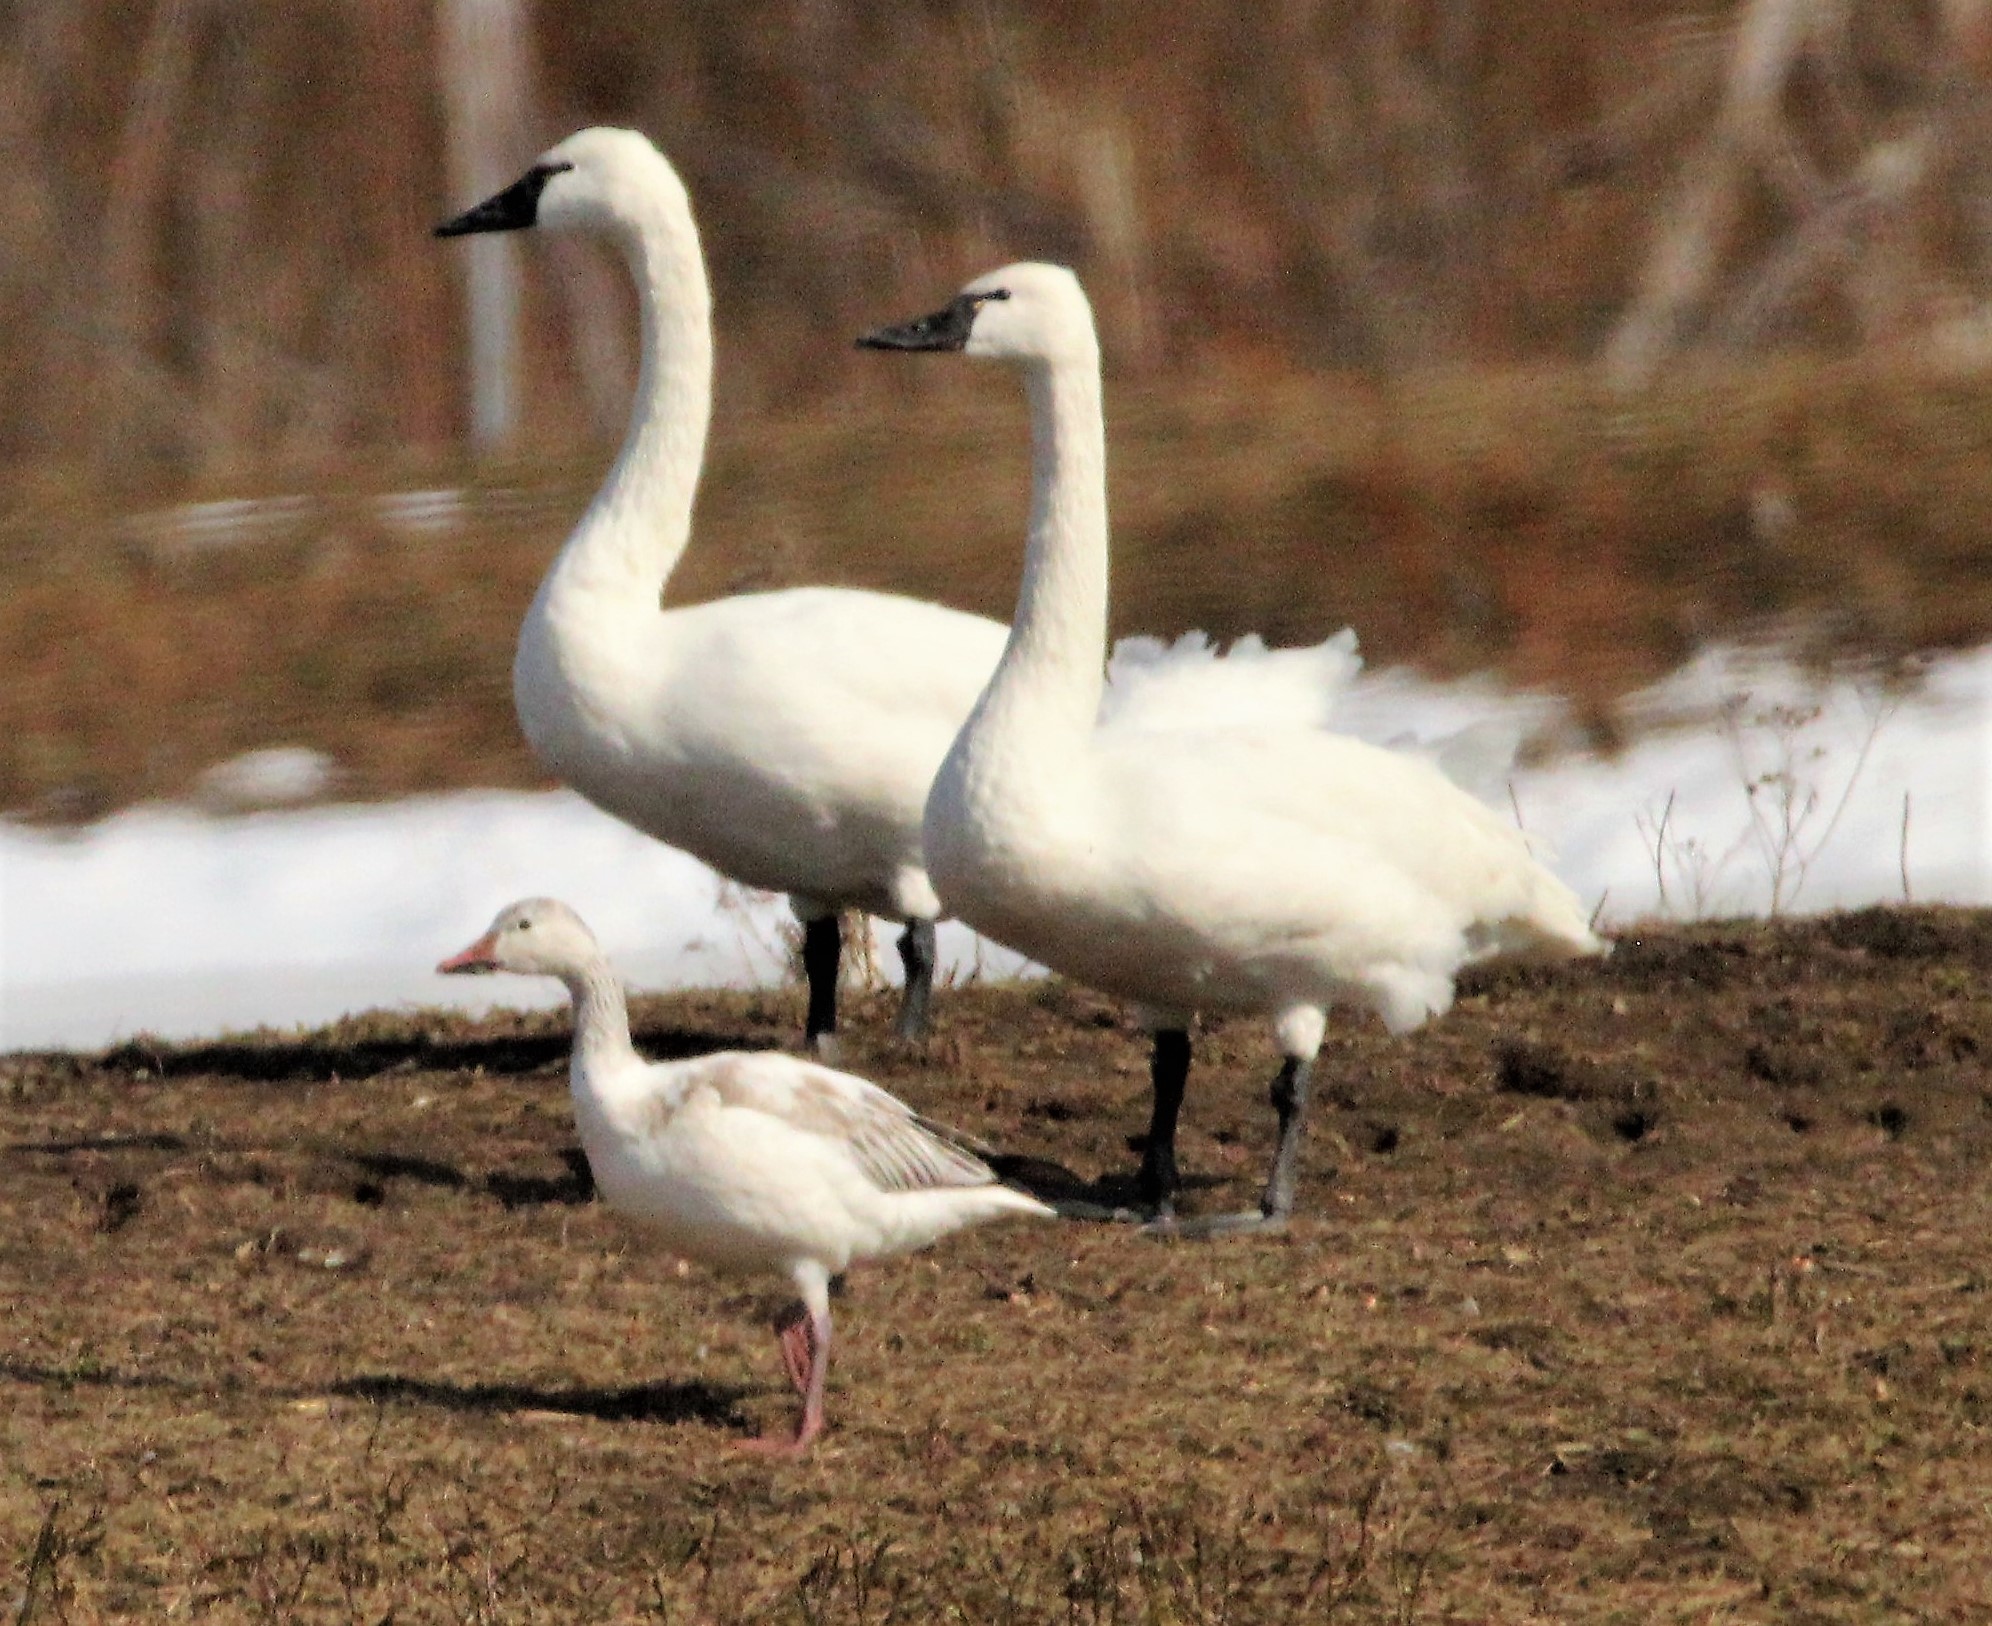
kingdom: Animalia
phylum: Chordata
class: Aves
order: Anseriformes
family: Anatidae
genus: Anser
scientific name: Anser caerulescens
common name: Snow goose
